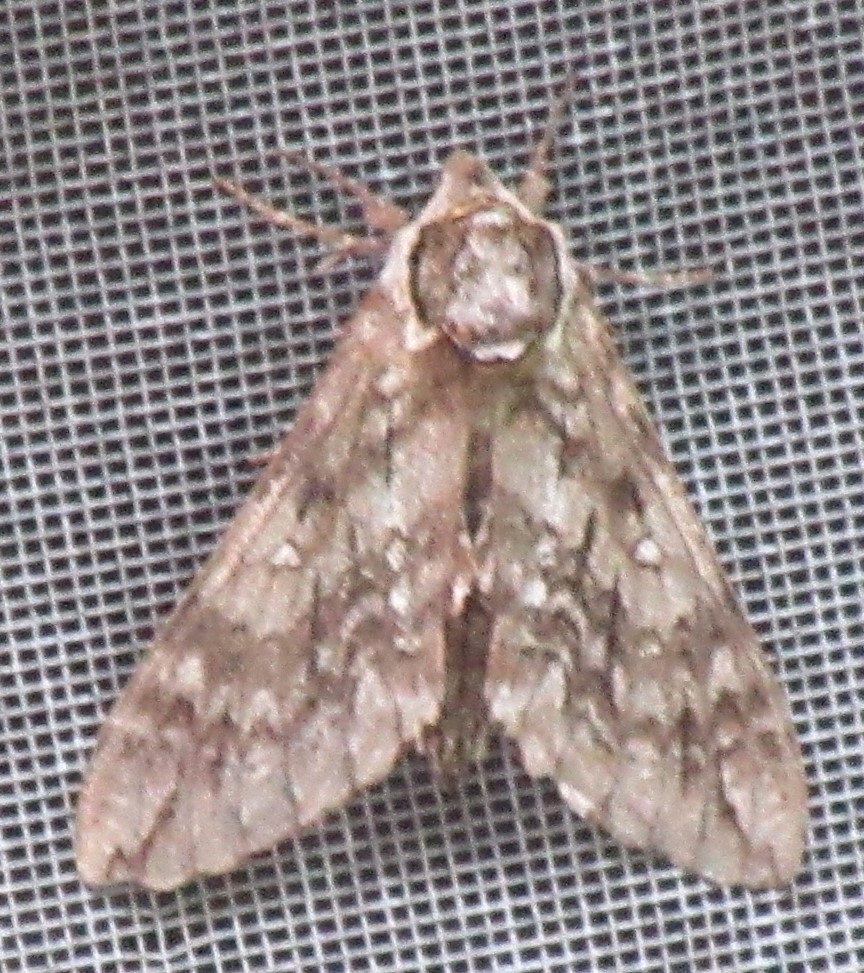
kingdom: Animalia
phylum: Arthropoda
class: Insecta
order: Lepidoptera
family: Sphingidae
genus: Ceratomia
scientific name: Ceratomia undulosa
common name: Waved sphinx
